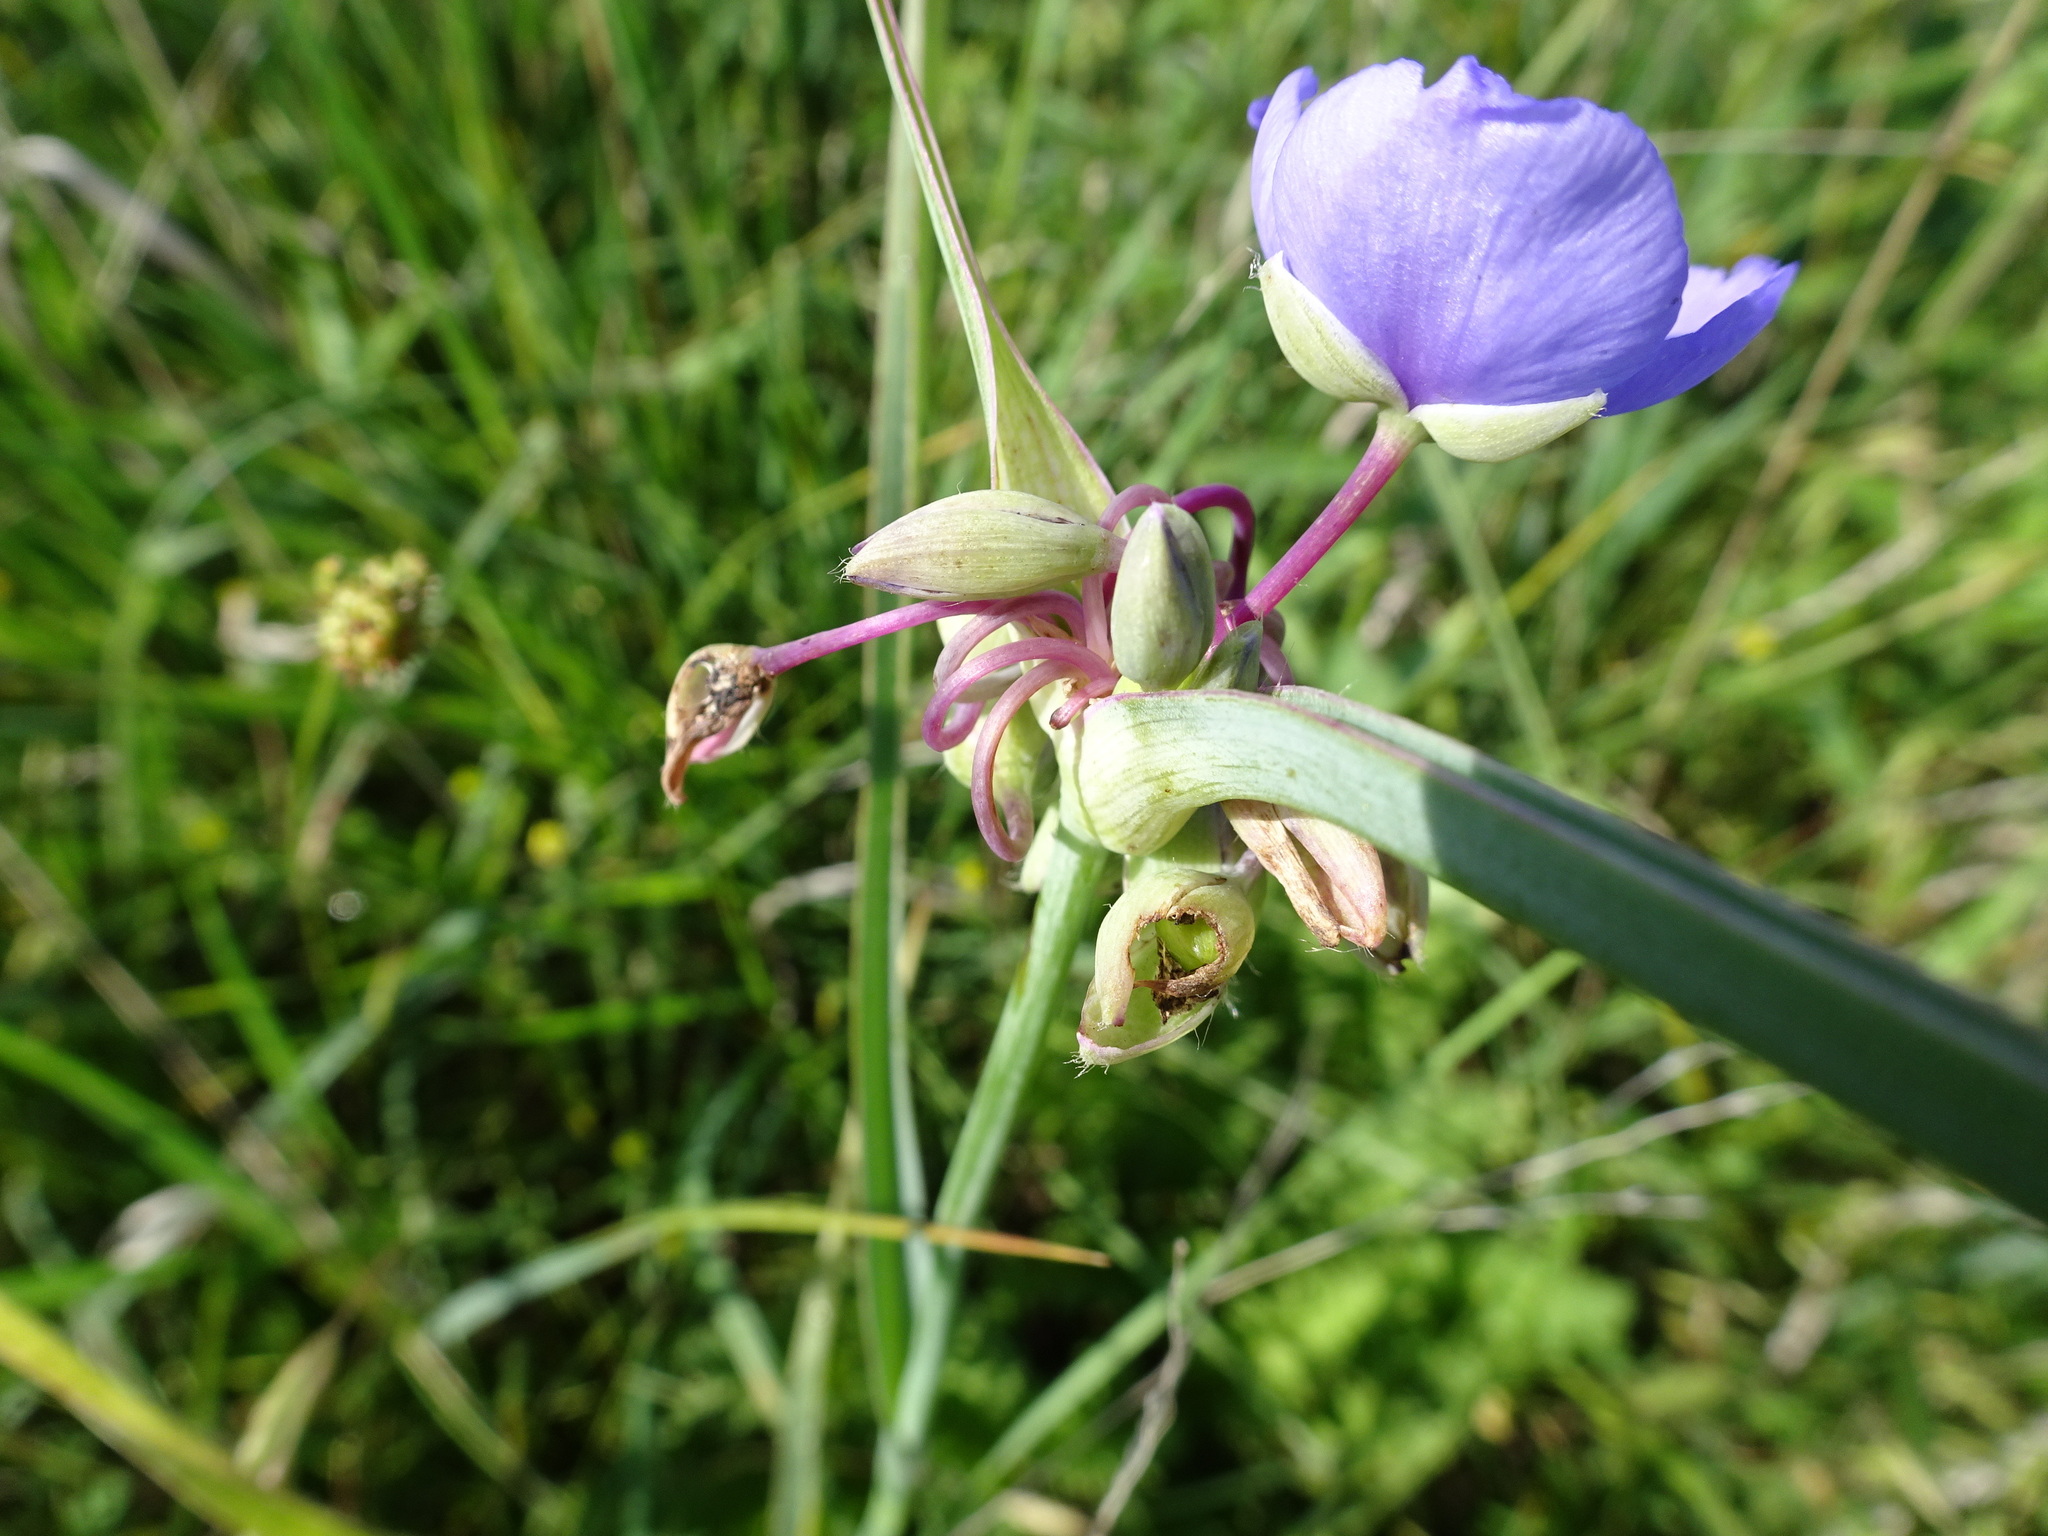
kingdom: Plantae
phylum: Tracheophyta
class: Liliopsida
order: Commelinales
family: Commelinaceae
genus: Tradescantia
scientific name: Tradescantia ohiensis
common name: Ohio spiderwort
